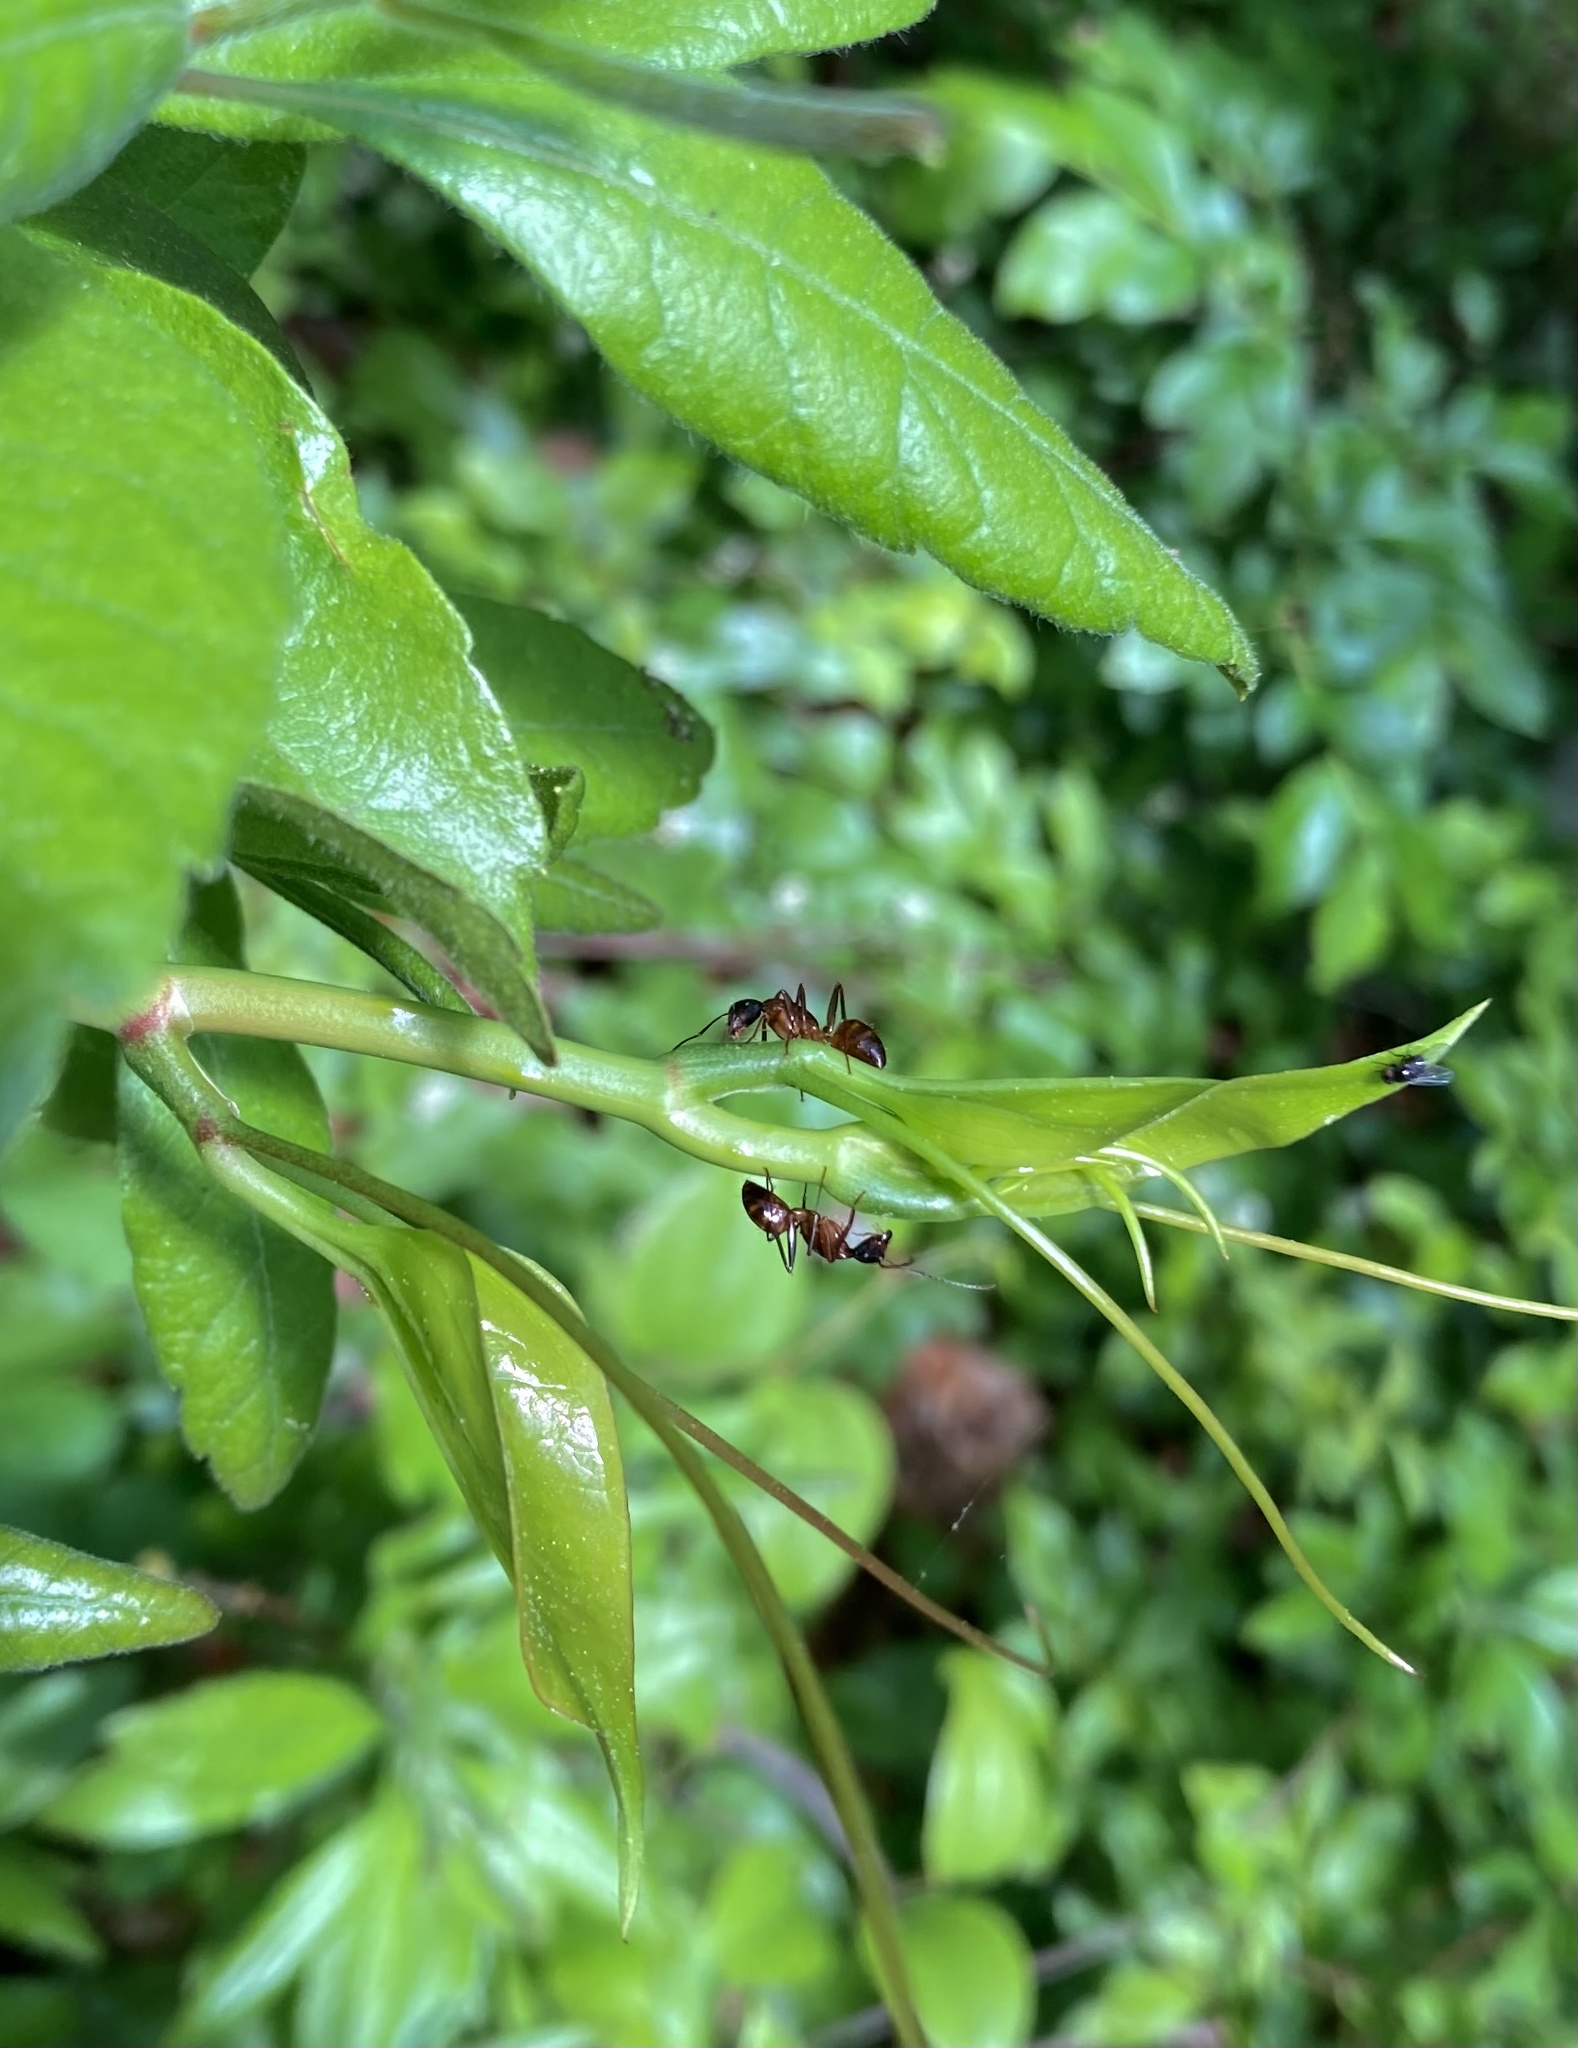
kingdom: Animalia
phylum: Arthropoda
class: Insecta
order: Hymenoptera
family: Formicidae
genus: Camponotus
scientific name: Camponotus americanus
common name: American carpenter ant
